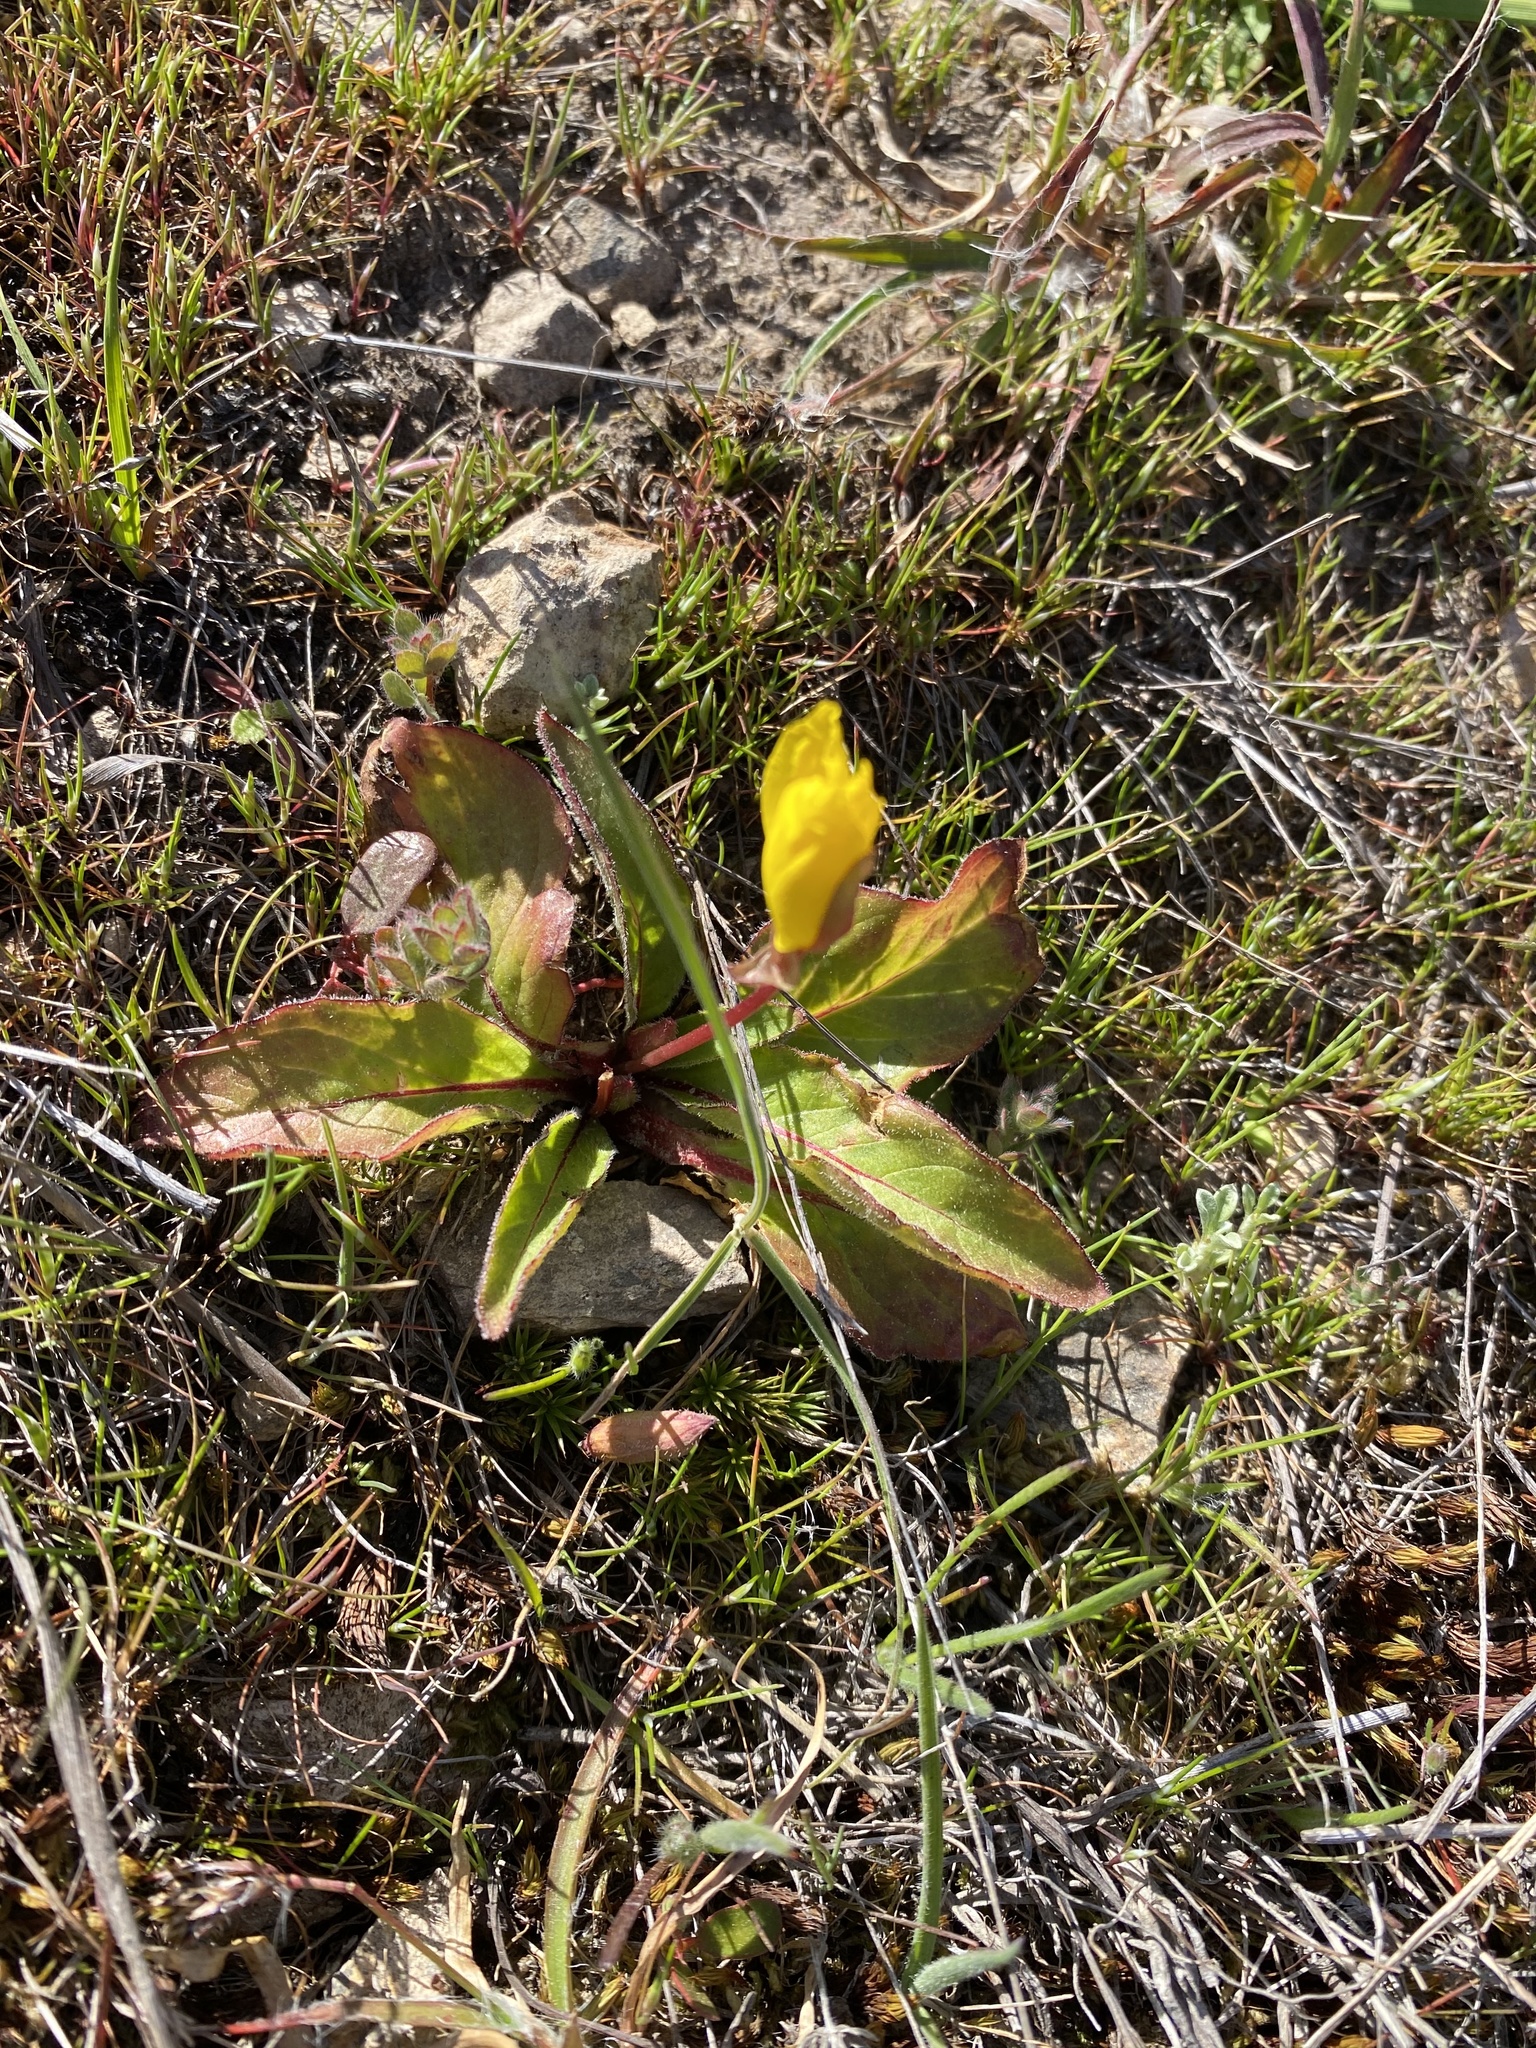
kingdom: Plantae
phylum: Tracheophyta
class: Magnoliopsida
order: Myrtales
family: Onagraceae
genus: Taraxia
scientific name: Taraxia ovata
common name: Goldeneggs
